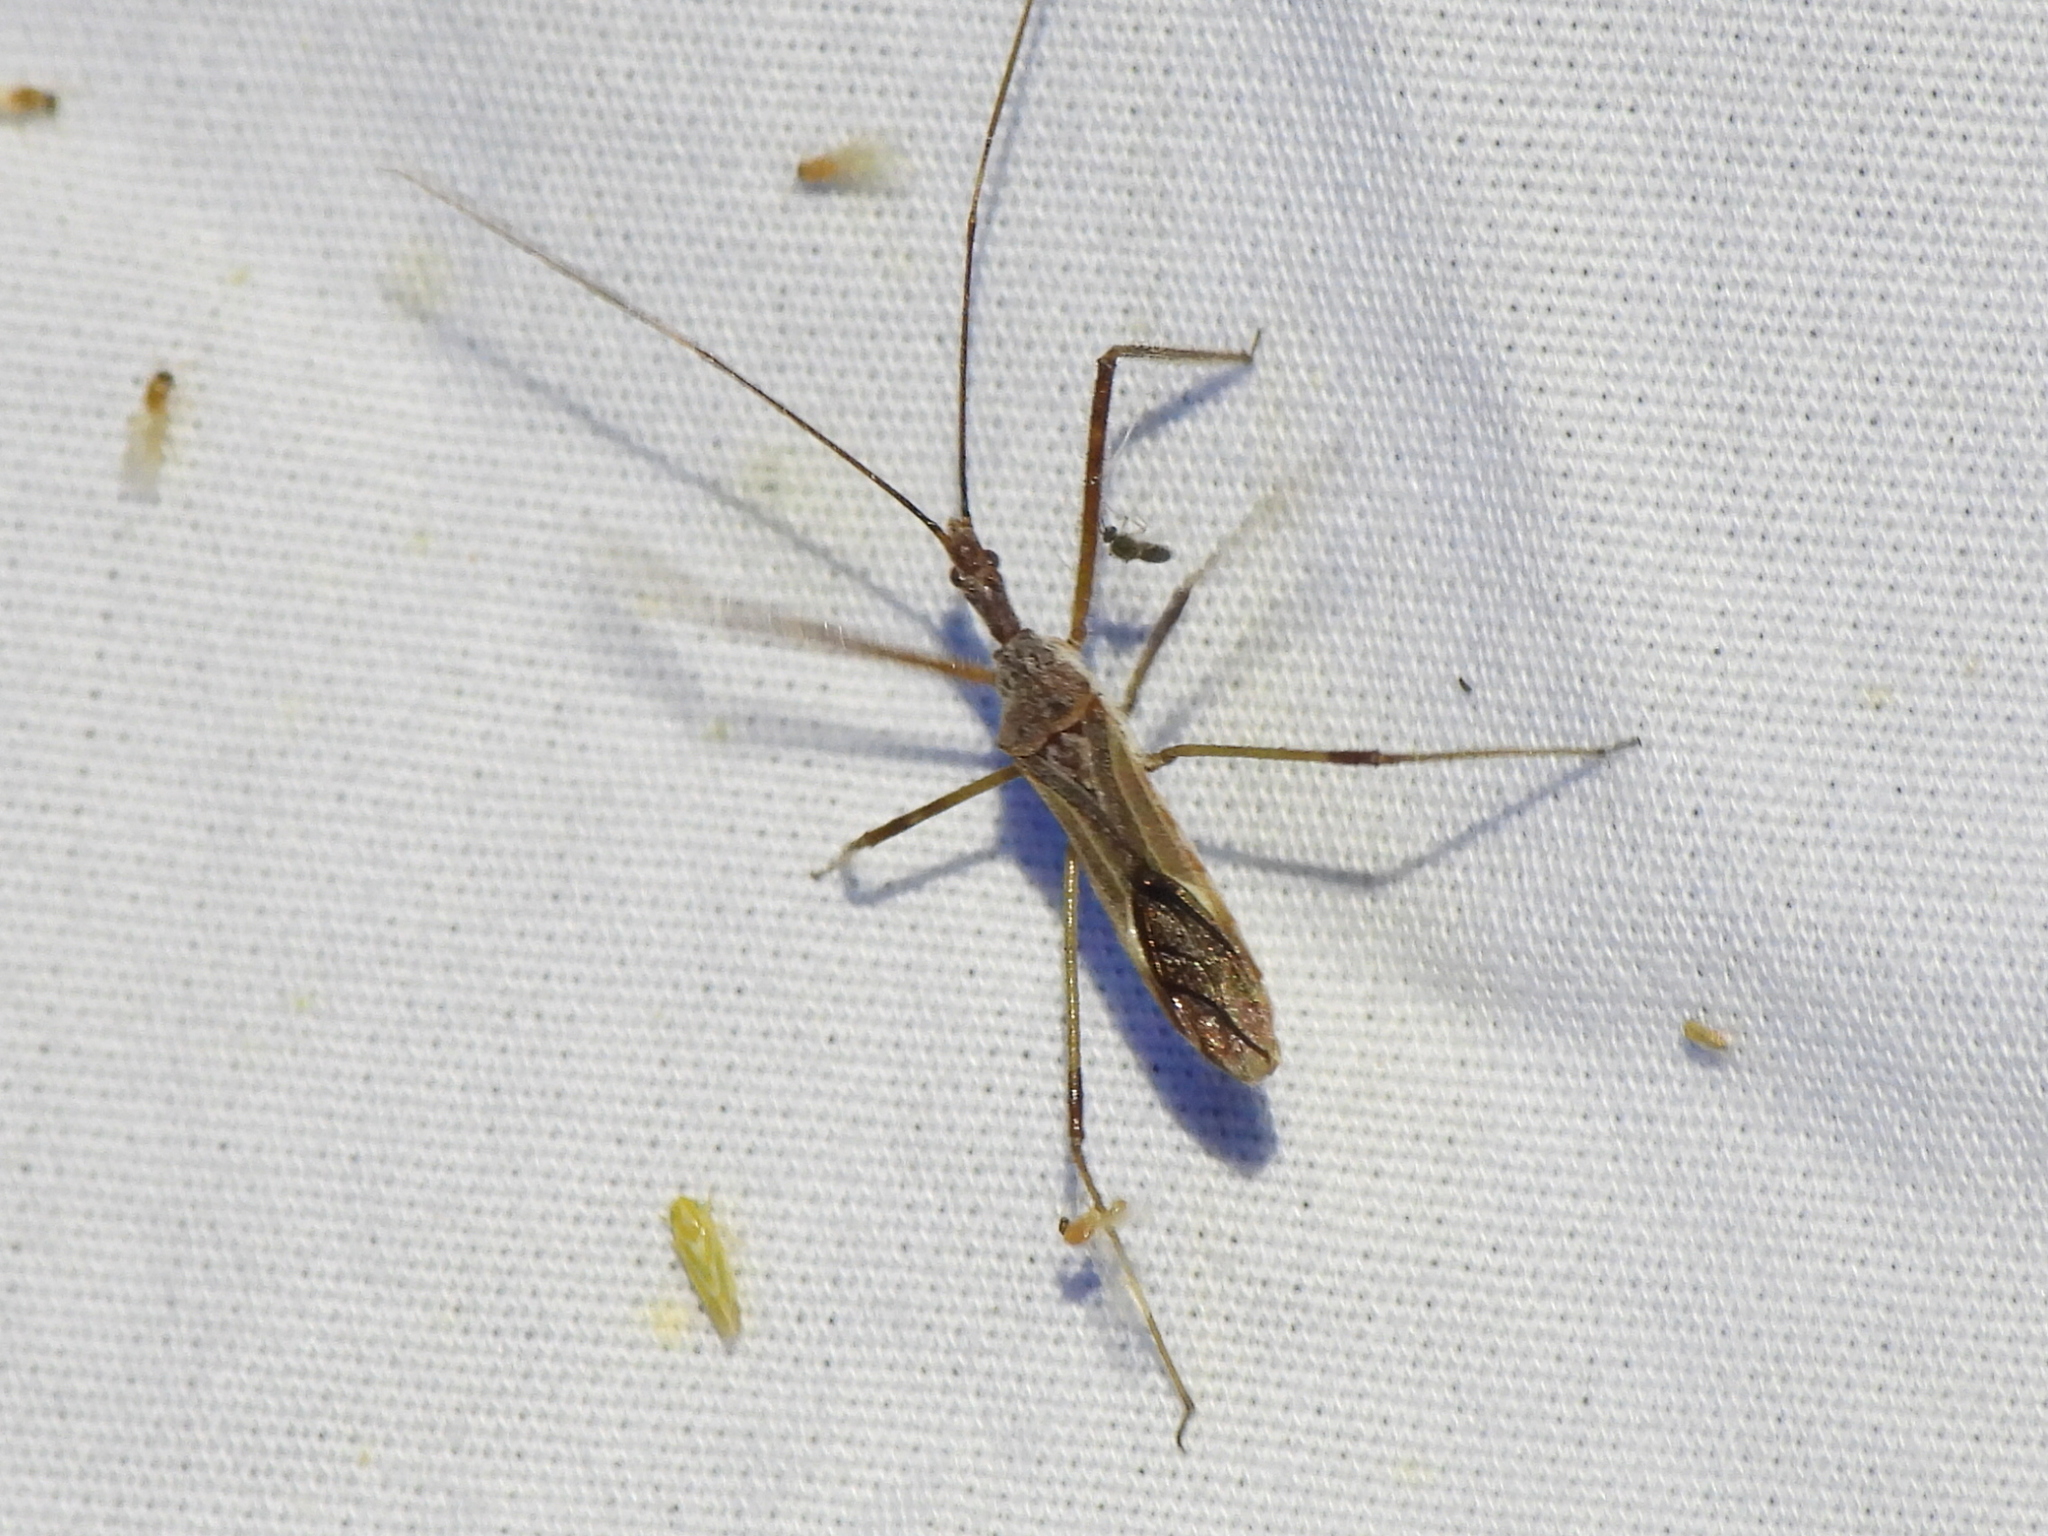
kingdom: Animalia
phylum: Arthropoda
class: Insecta
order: Hemiptera
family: Reduviidae
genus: Zelus
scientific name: Zelus tetracanthus
